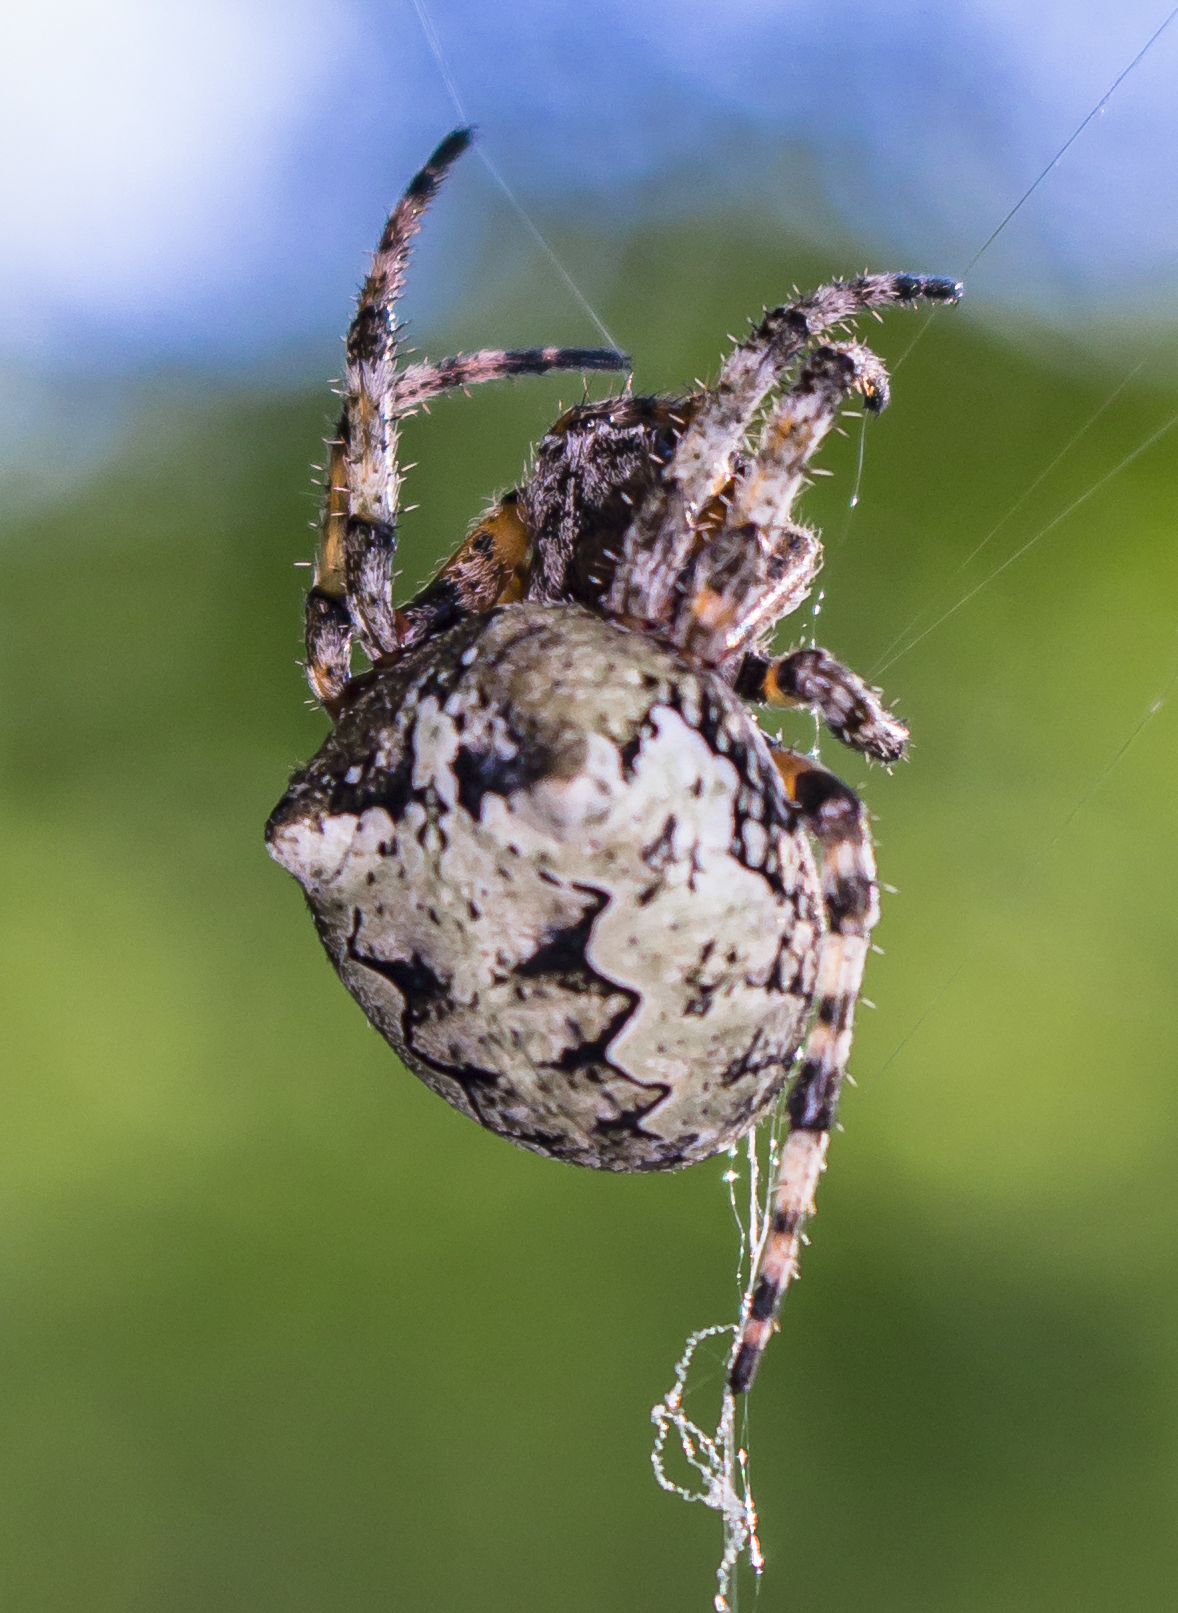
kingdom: Animalia
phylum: Arthropoda
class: Arachnida
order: Araneae
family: Araneidae
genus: Araneus
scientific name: Araneus bicentenarius
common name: Giant lichen orbweaver
